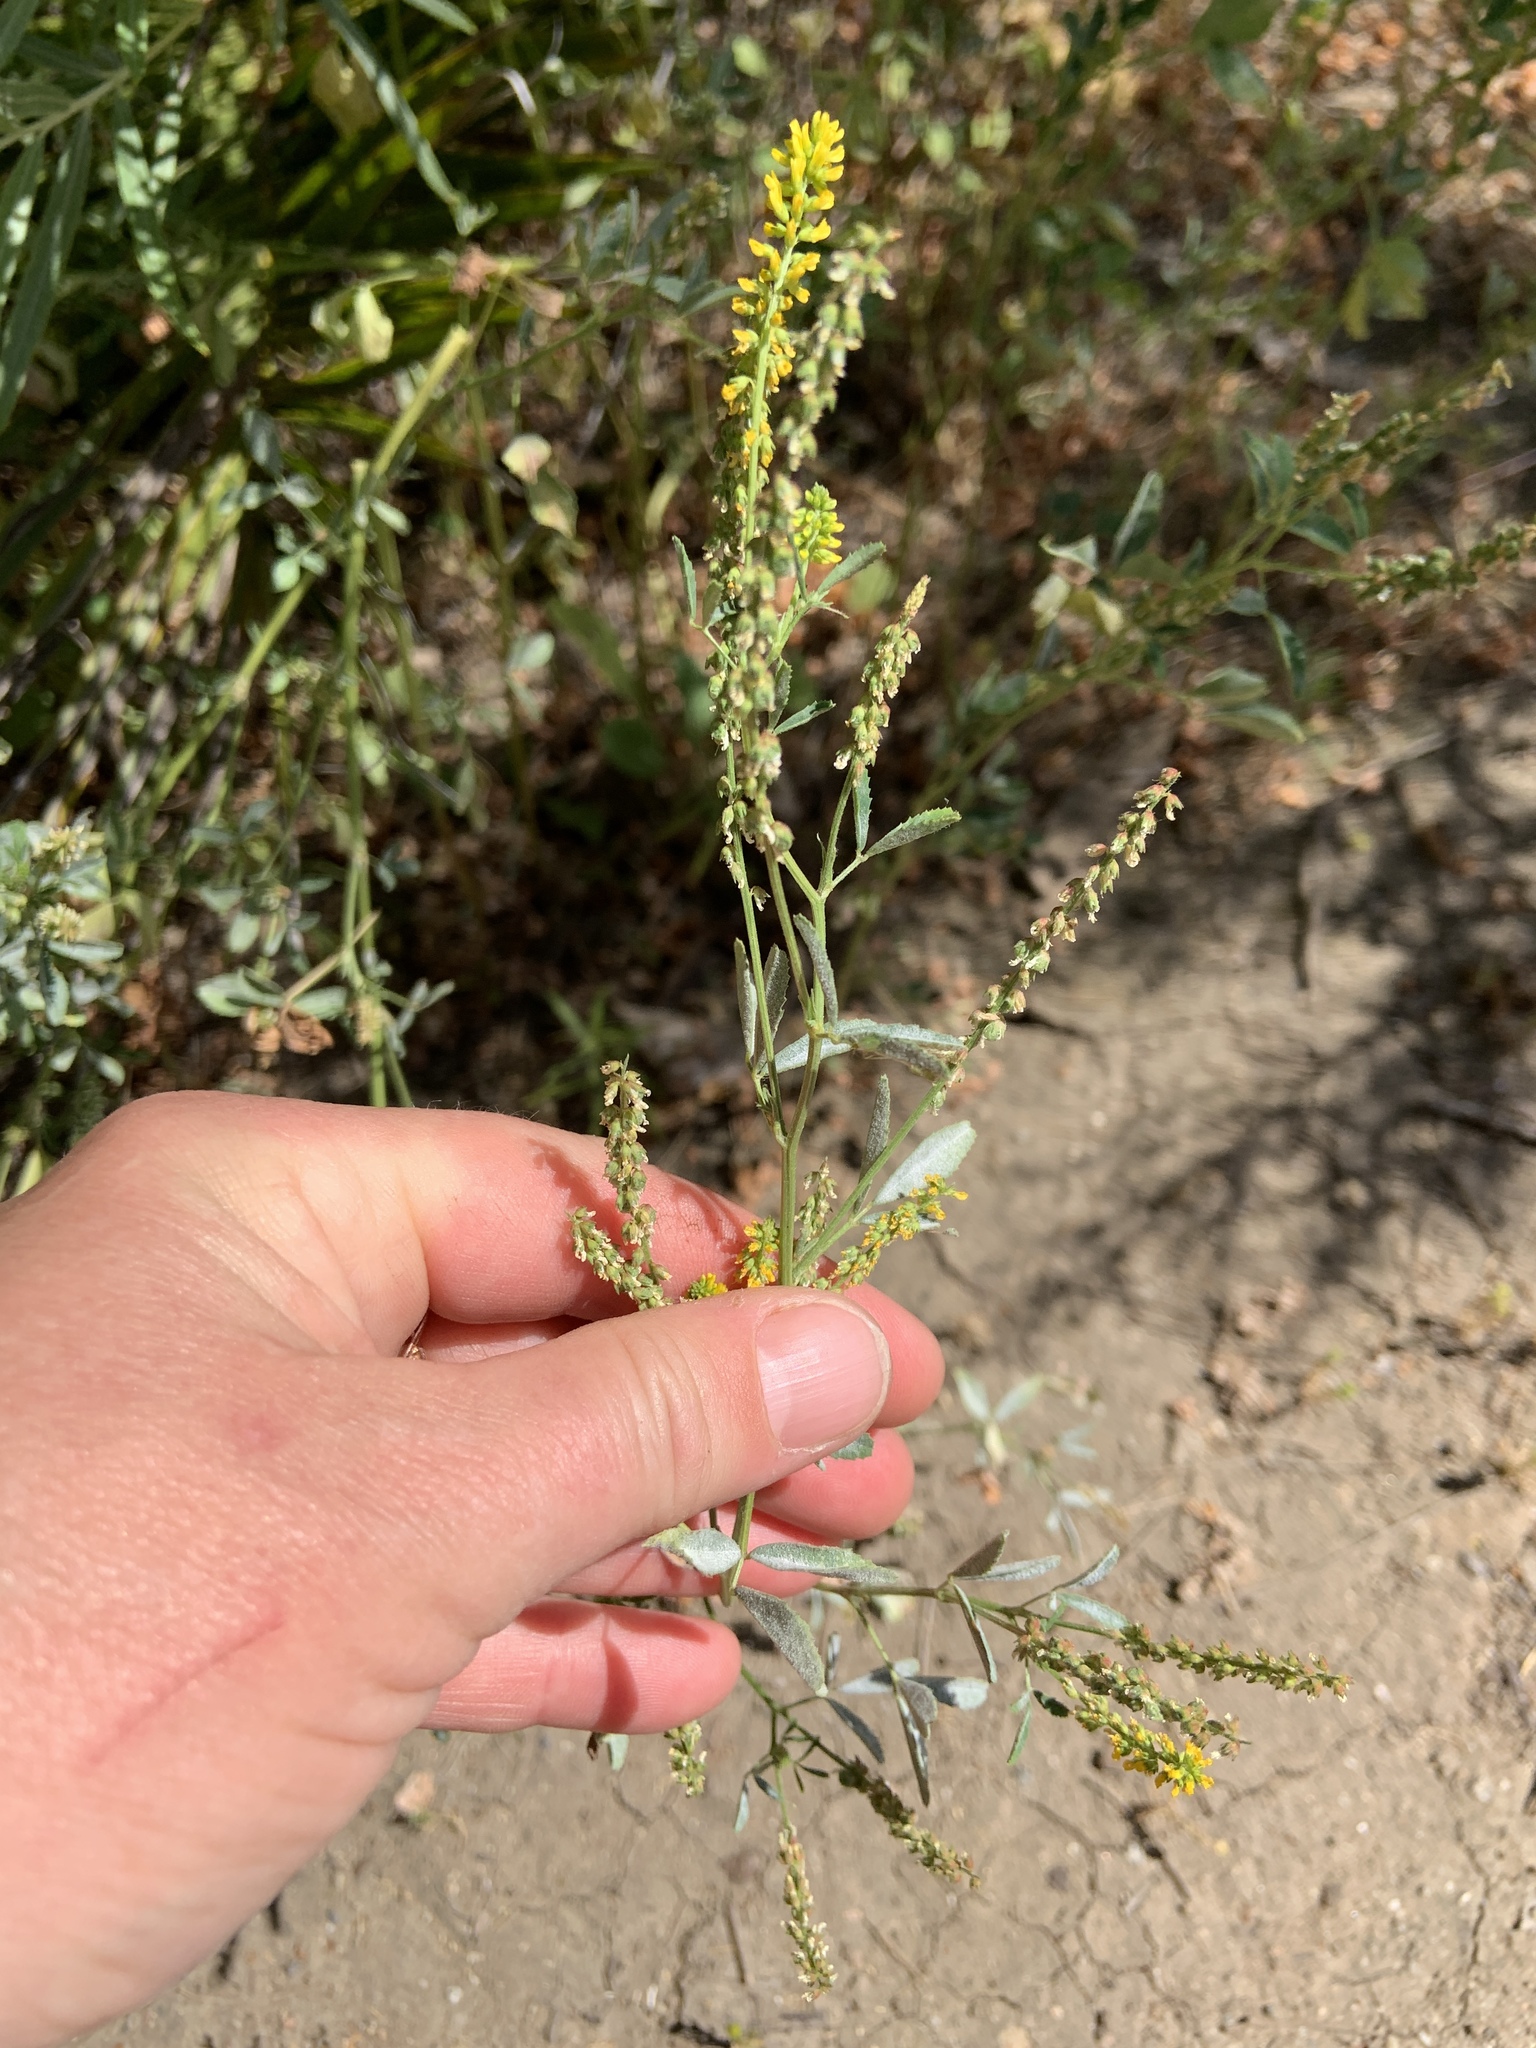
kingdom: Plantae
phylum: Tracheophyta
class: Magnoliopsida
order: Fabales
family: Fabaceae
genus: Melilotus
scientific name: Melilotus indicus
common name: Small melilot
